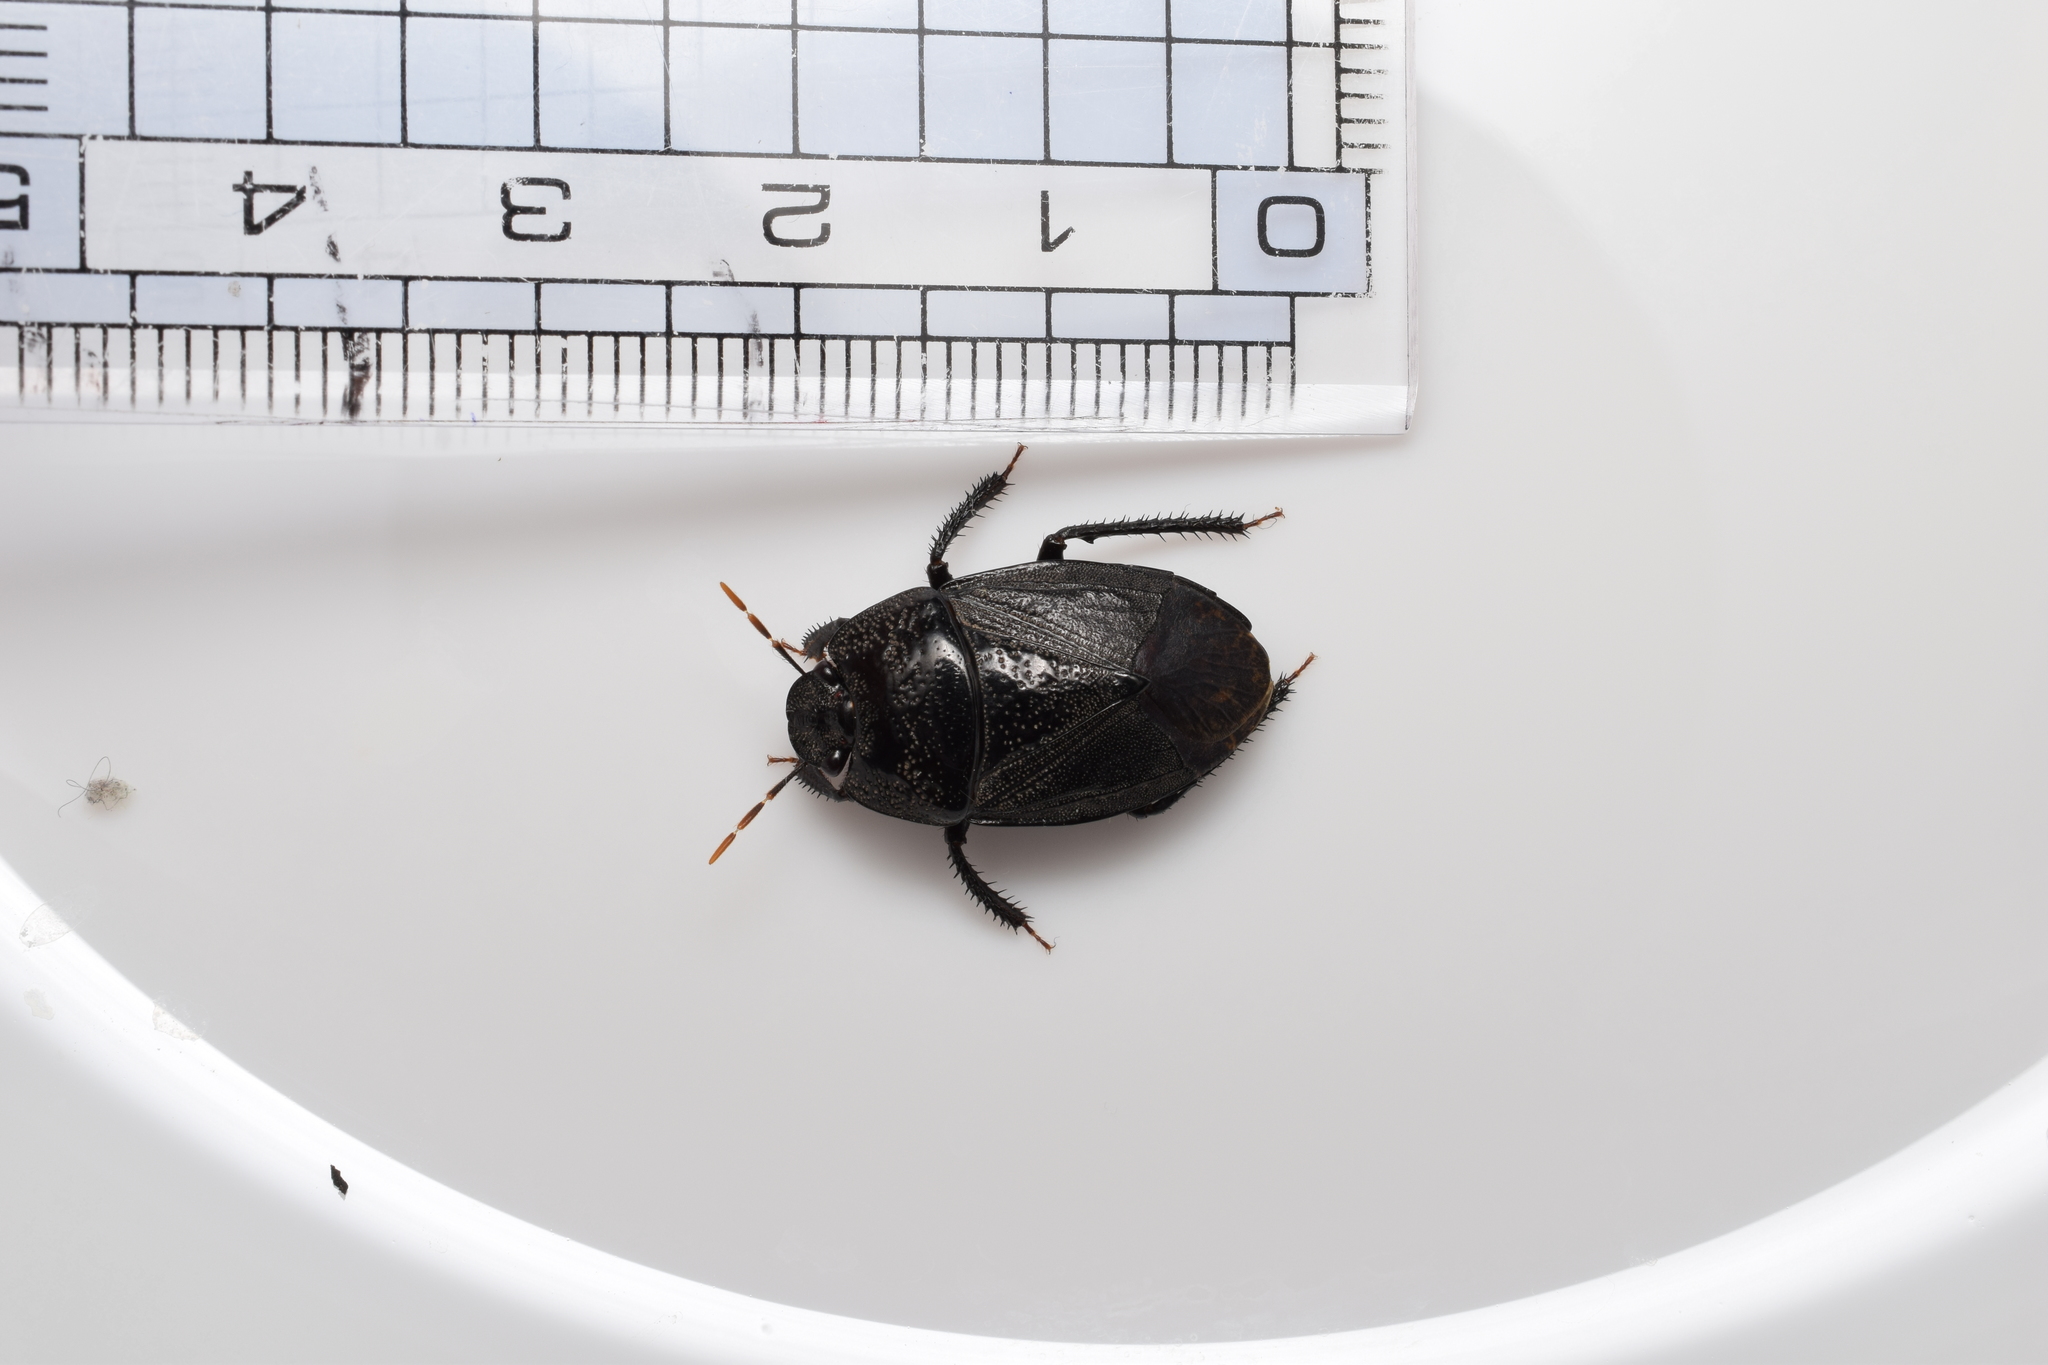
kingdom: Animalia
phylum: Arthropoda
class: Insecta
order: Hemiptera
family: Cydnidae
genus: Adrisa
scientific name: Adrisa magna
